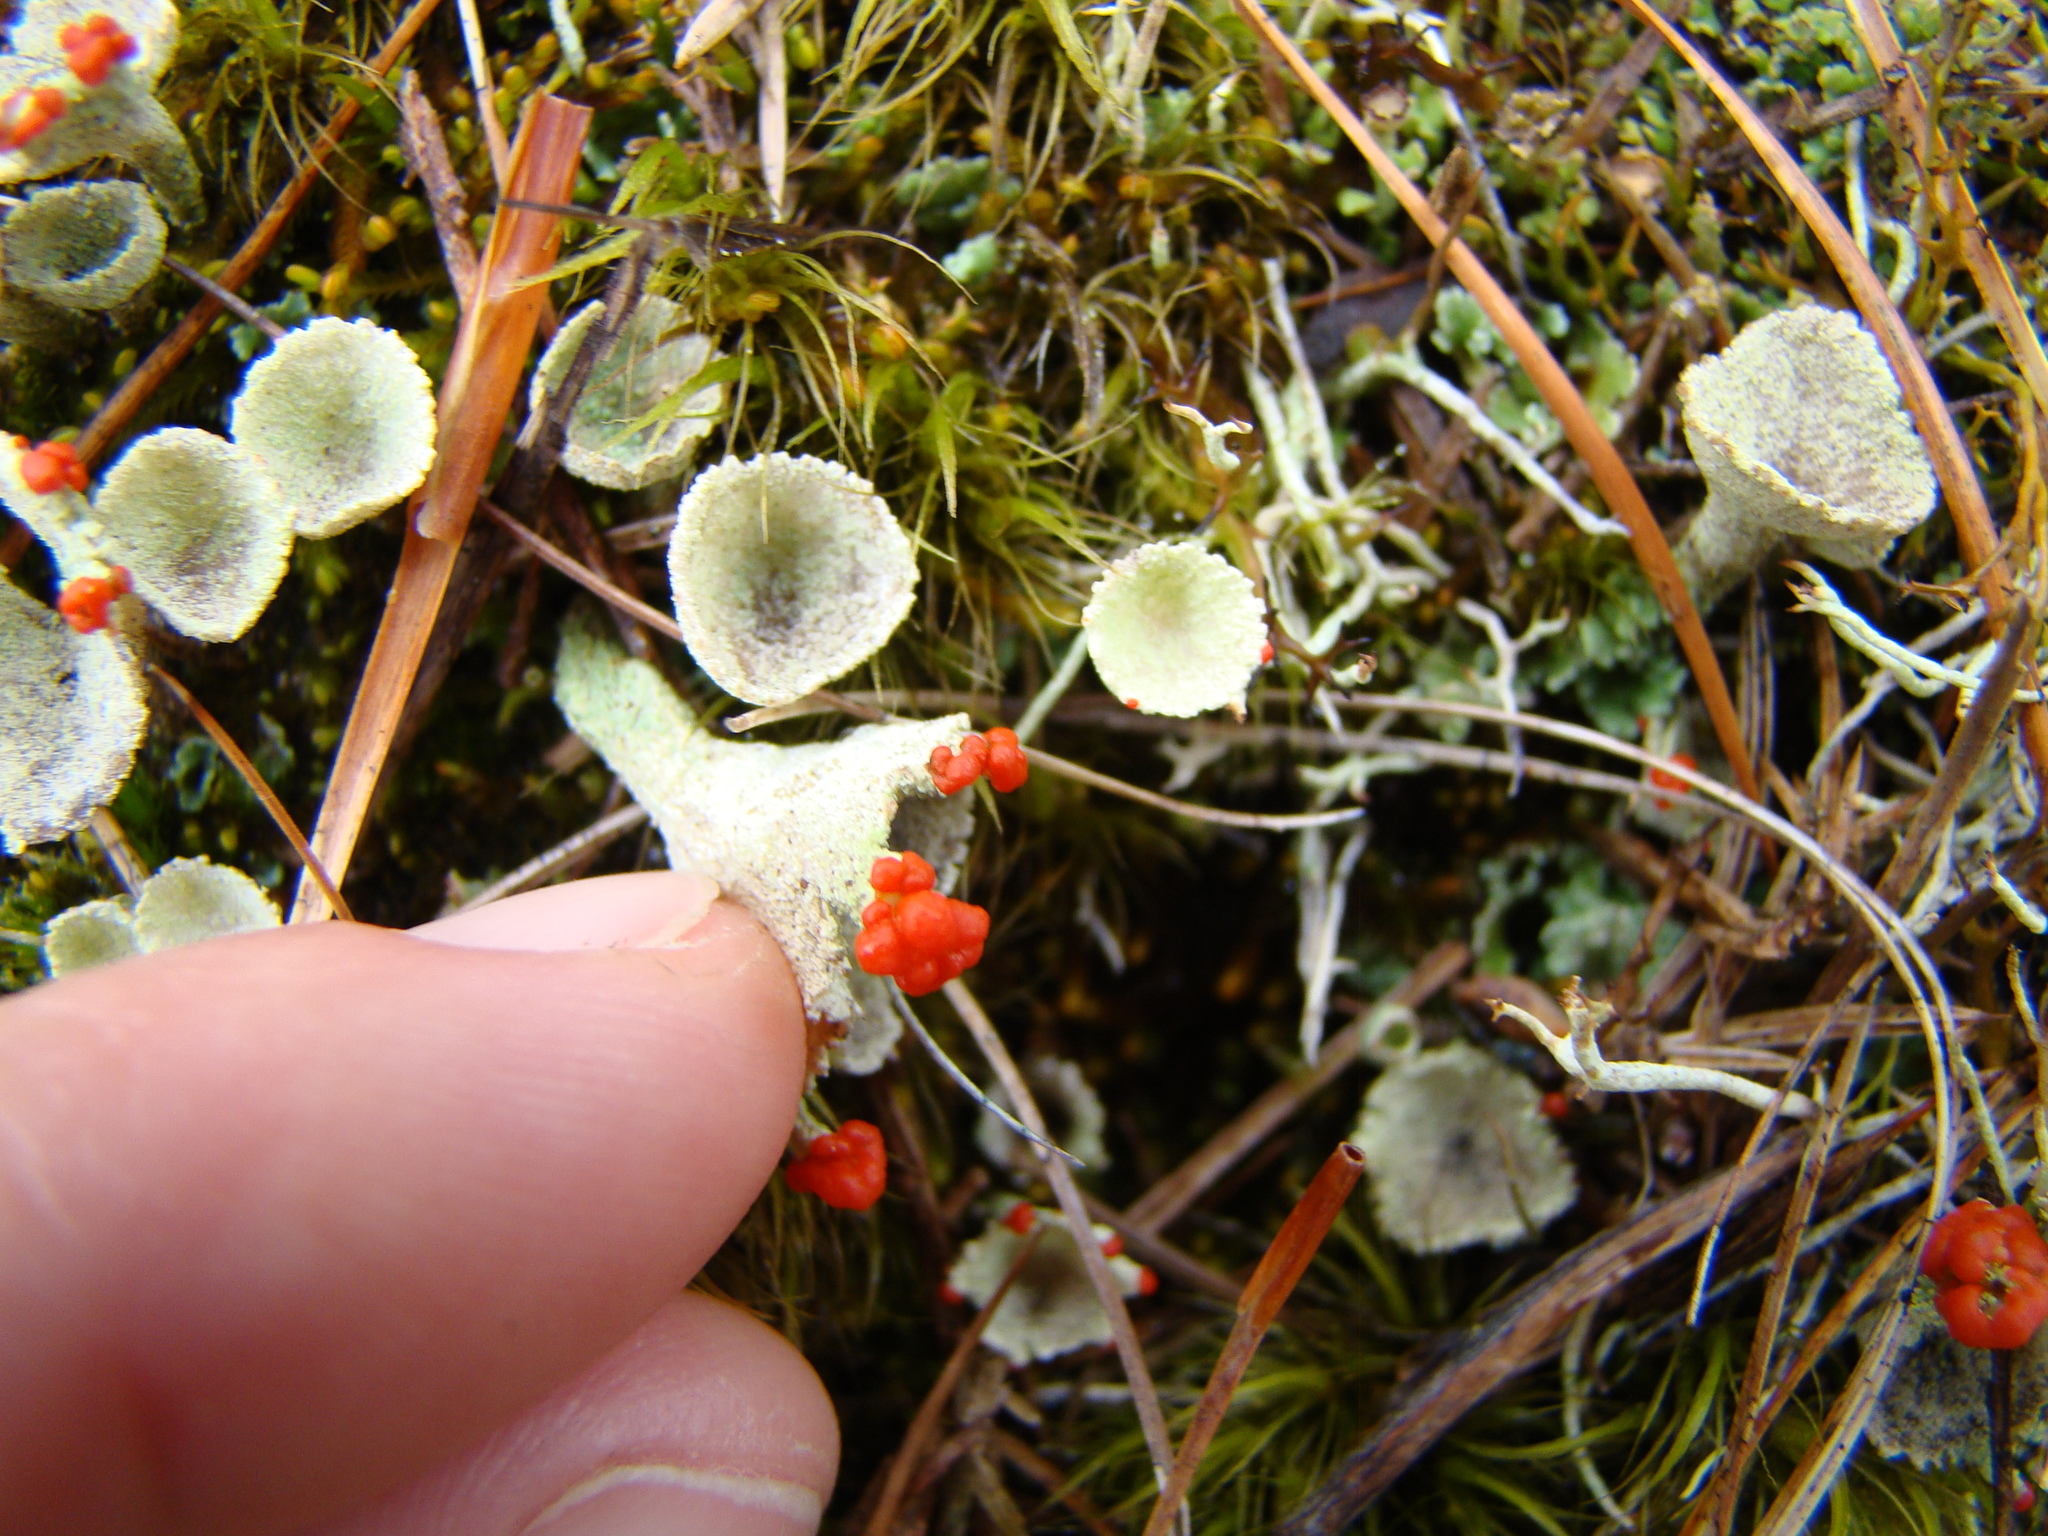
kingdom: Fungi
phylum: Ascomycota
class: Lecanoromycetes
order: Lecanorales
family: Cladoniaceae
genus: Cladonia
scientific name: Cladonia pleurota
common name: Red-fruited pixie cup
